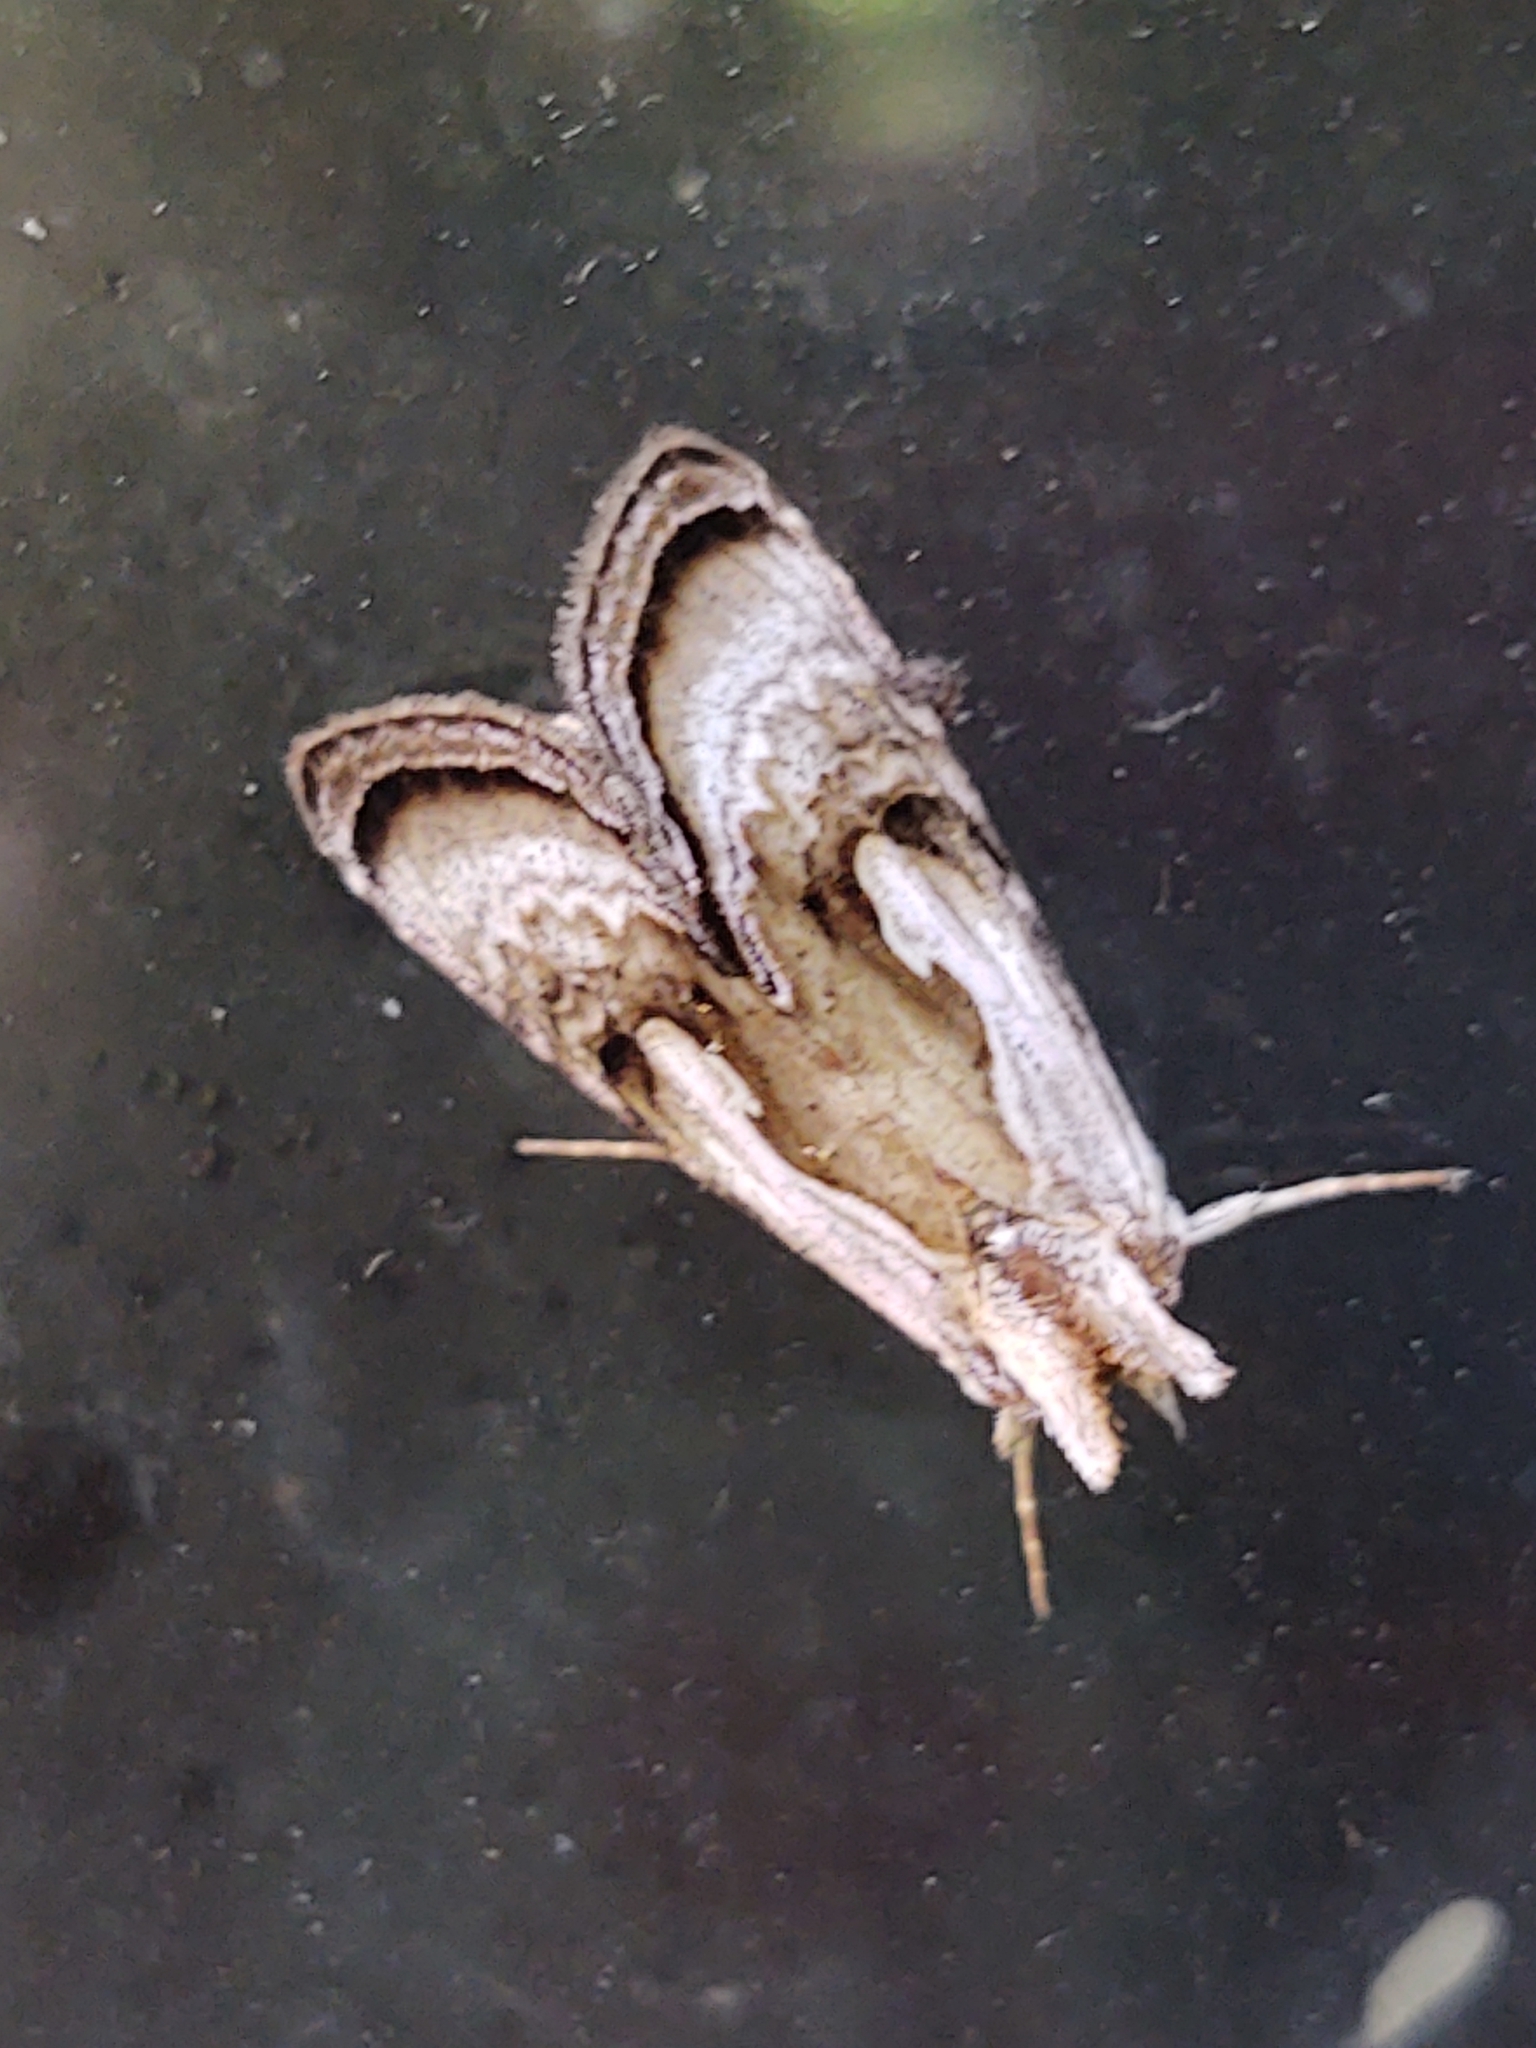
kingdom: Animalia
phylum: Arthropoda
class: Insecta
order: Lepidoptera
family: Noctuidae
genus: Chrysanympha
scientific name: Chrysanympha formosa
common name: Formosa looper moth
